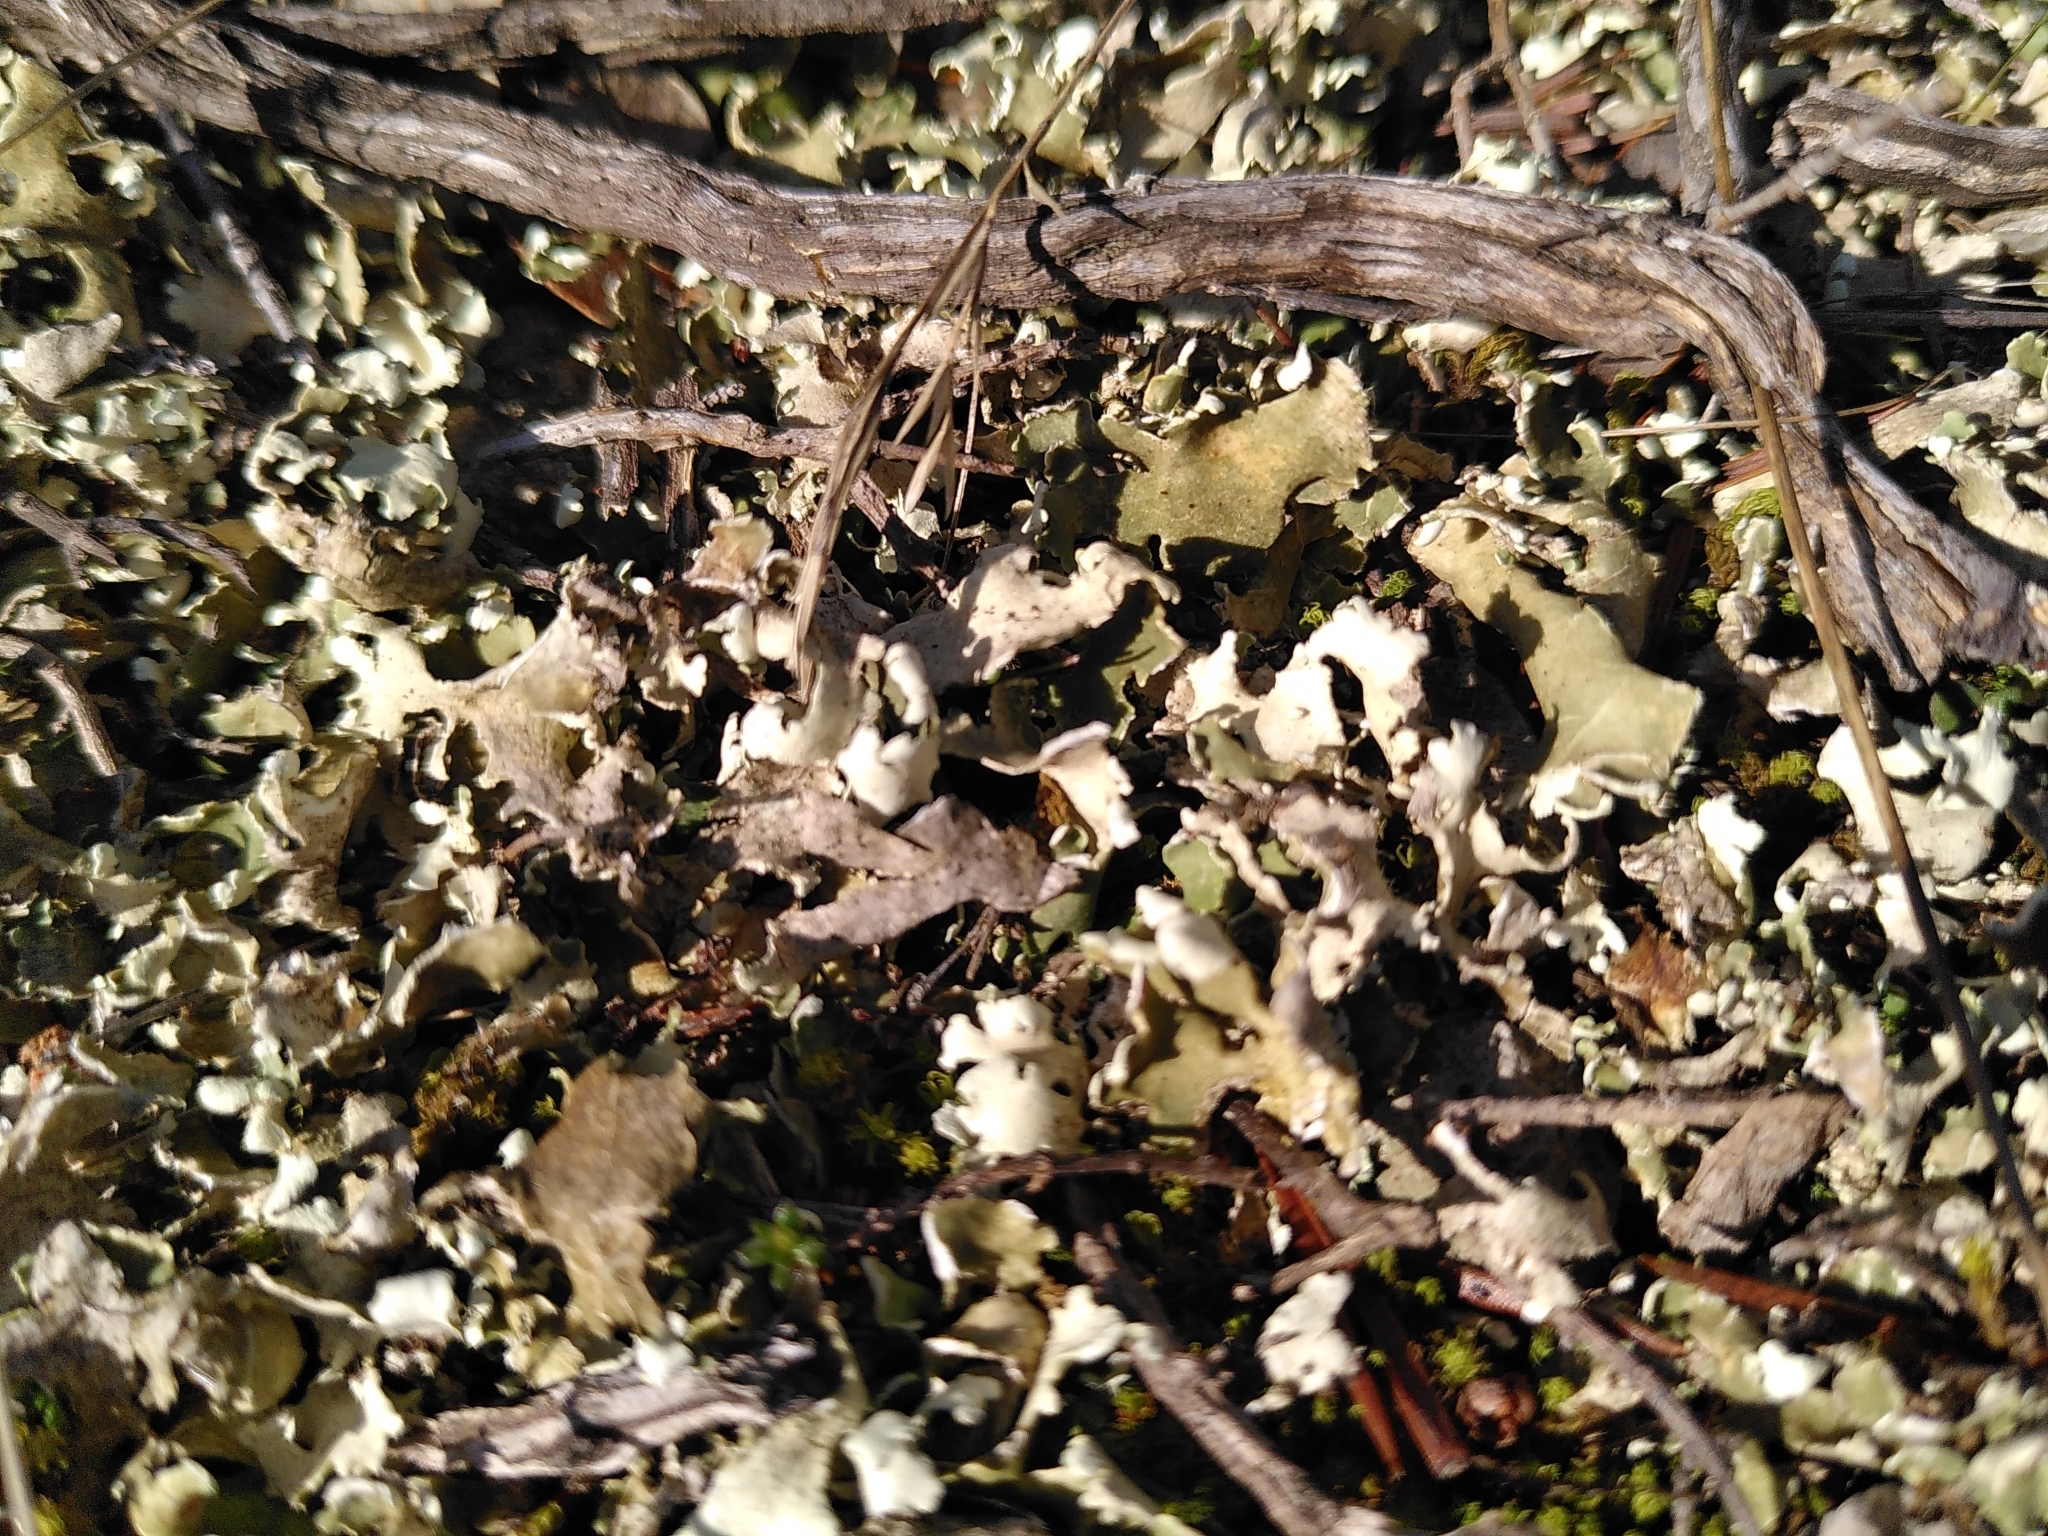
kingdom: Fungi
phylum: Ascomycota
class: Lecanoromycetes
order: Lecanorales
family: Cladoniaceae
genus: Cladonia
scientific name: Cladonia foliacea
